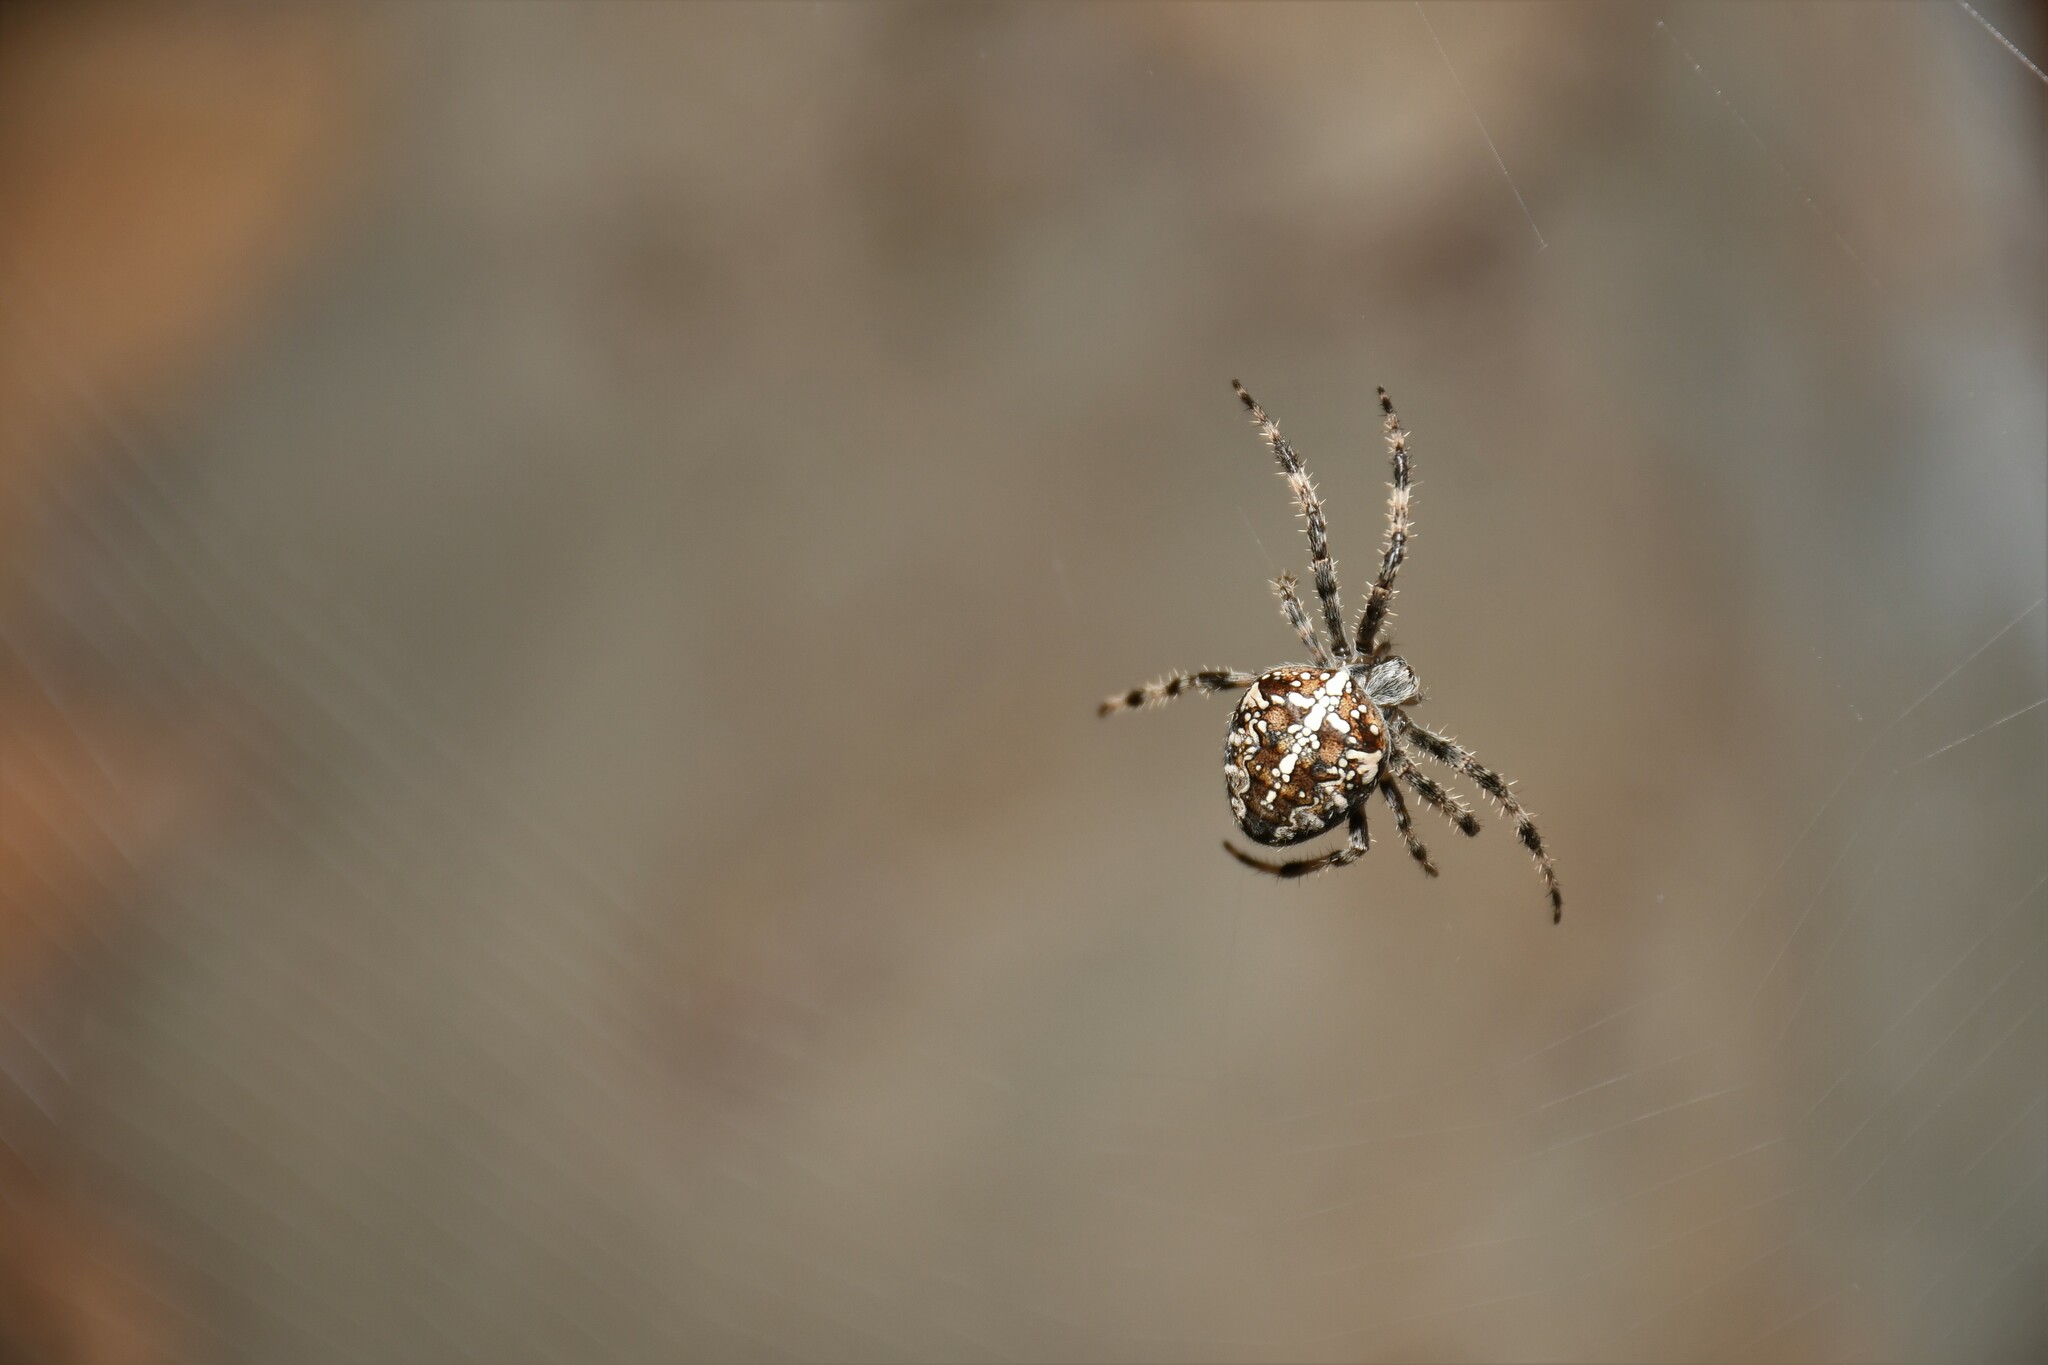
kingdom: Animalia
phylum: Arthropoda
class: Arachnida
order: Araneae
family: Araneidae
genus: Araneus
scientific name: Araneus diadematus
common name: Cross orbweaver
